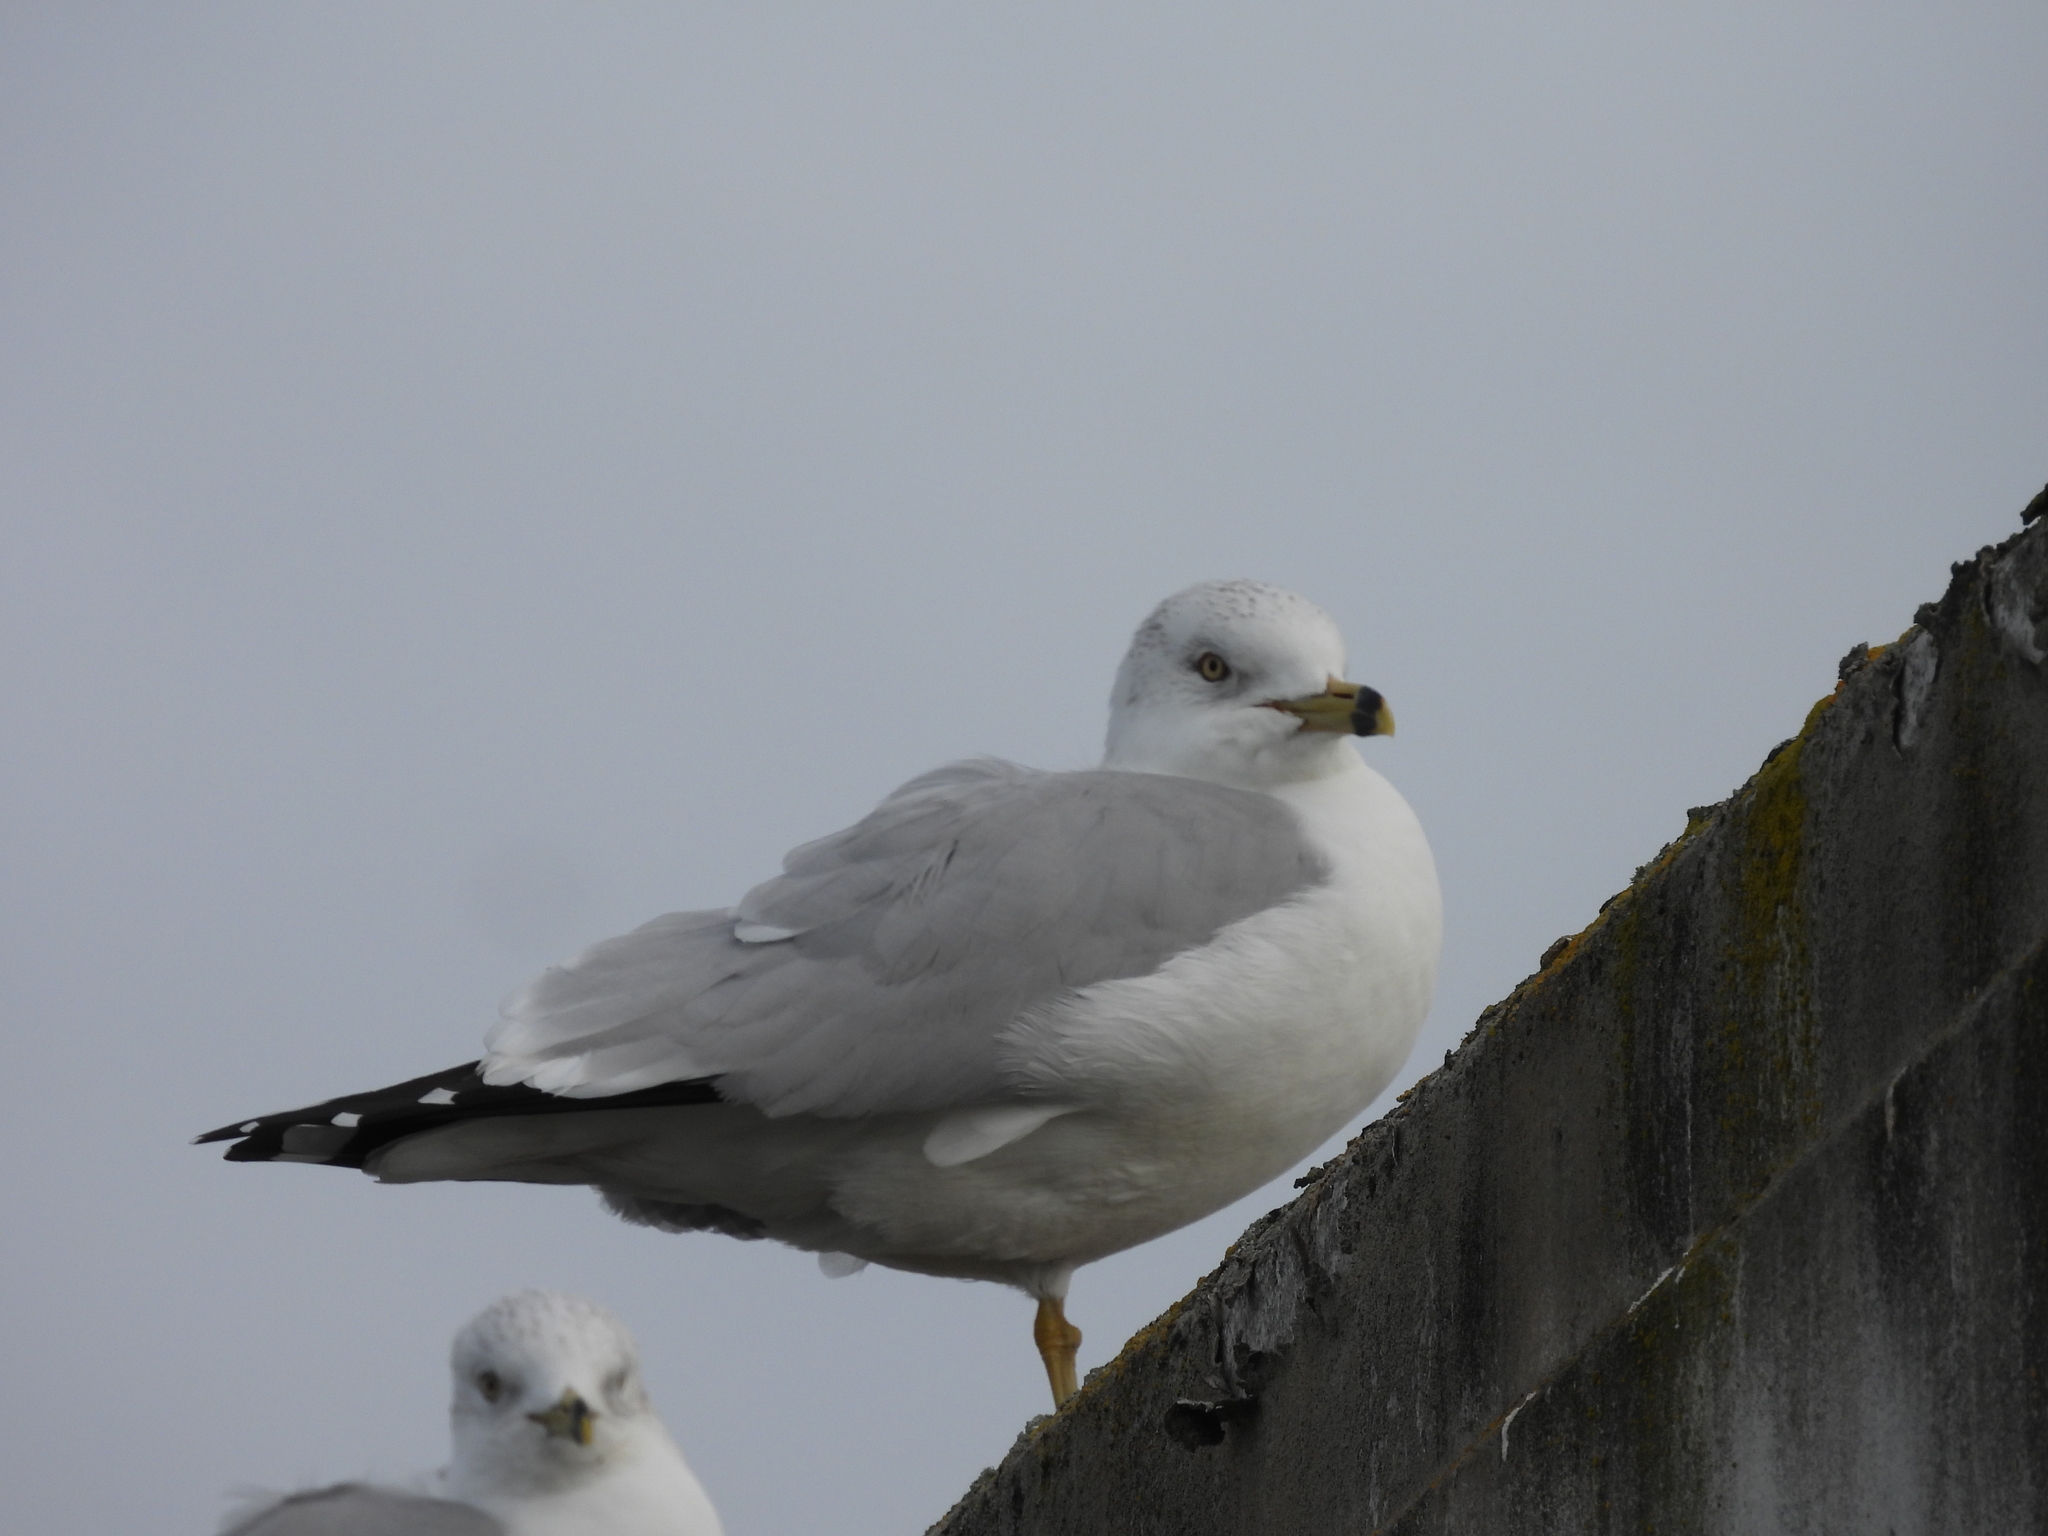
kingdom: Animalia
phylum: Chordata
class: Aves
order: Charadriiformes
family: Laridae
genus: Larus
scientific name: Larus delawarensis
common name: Ring-billed gull
